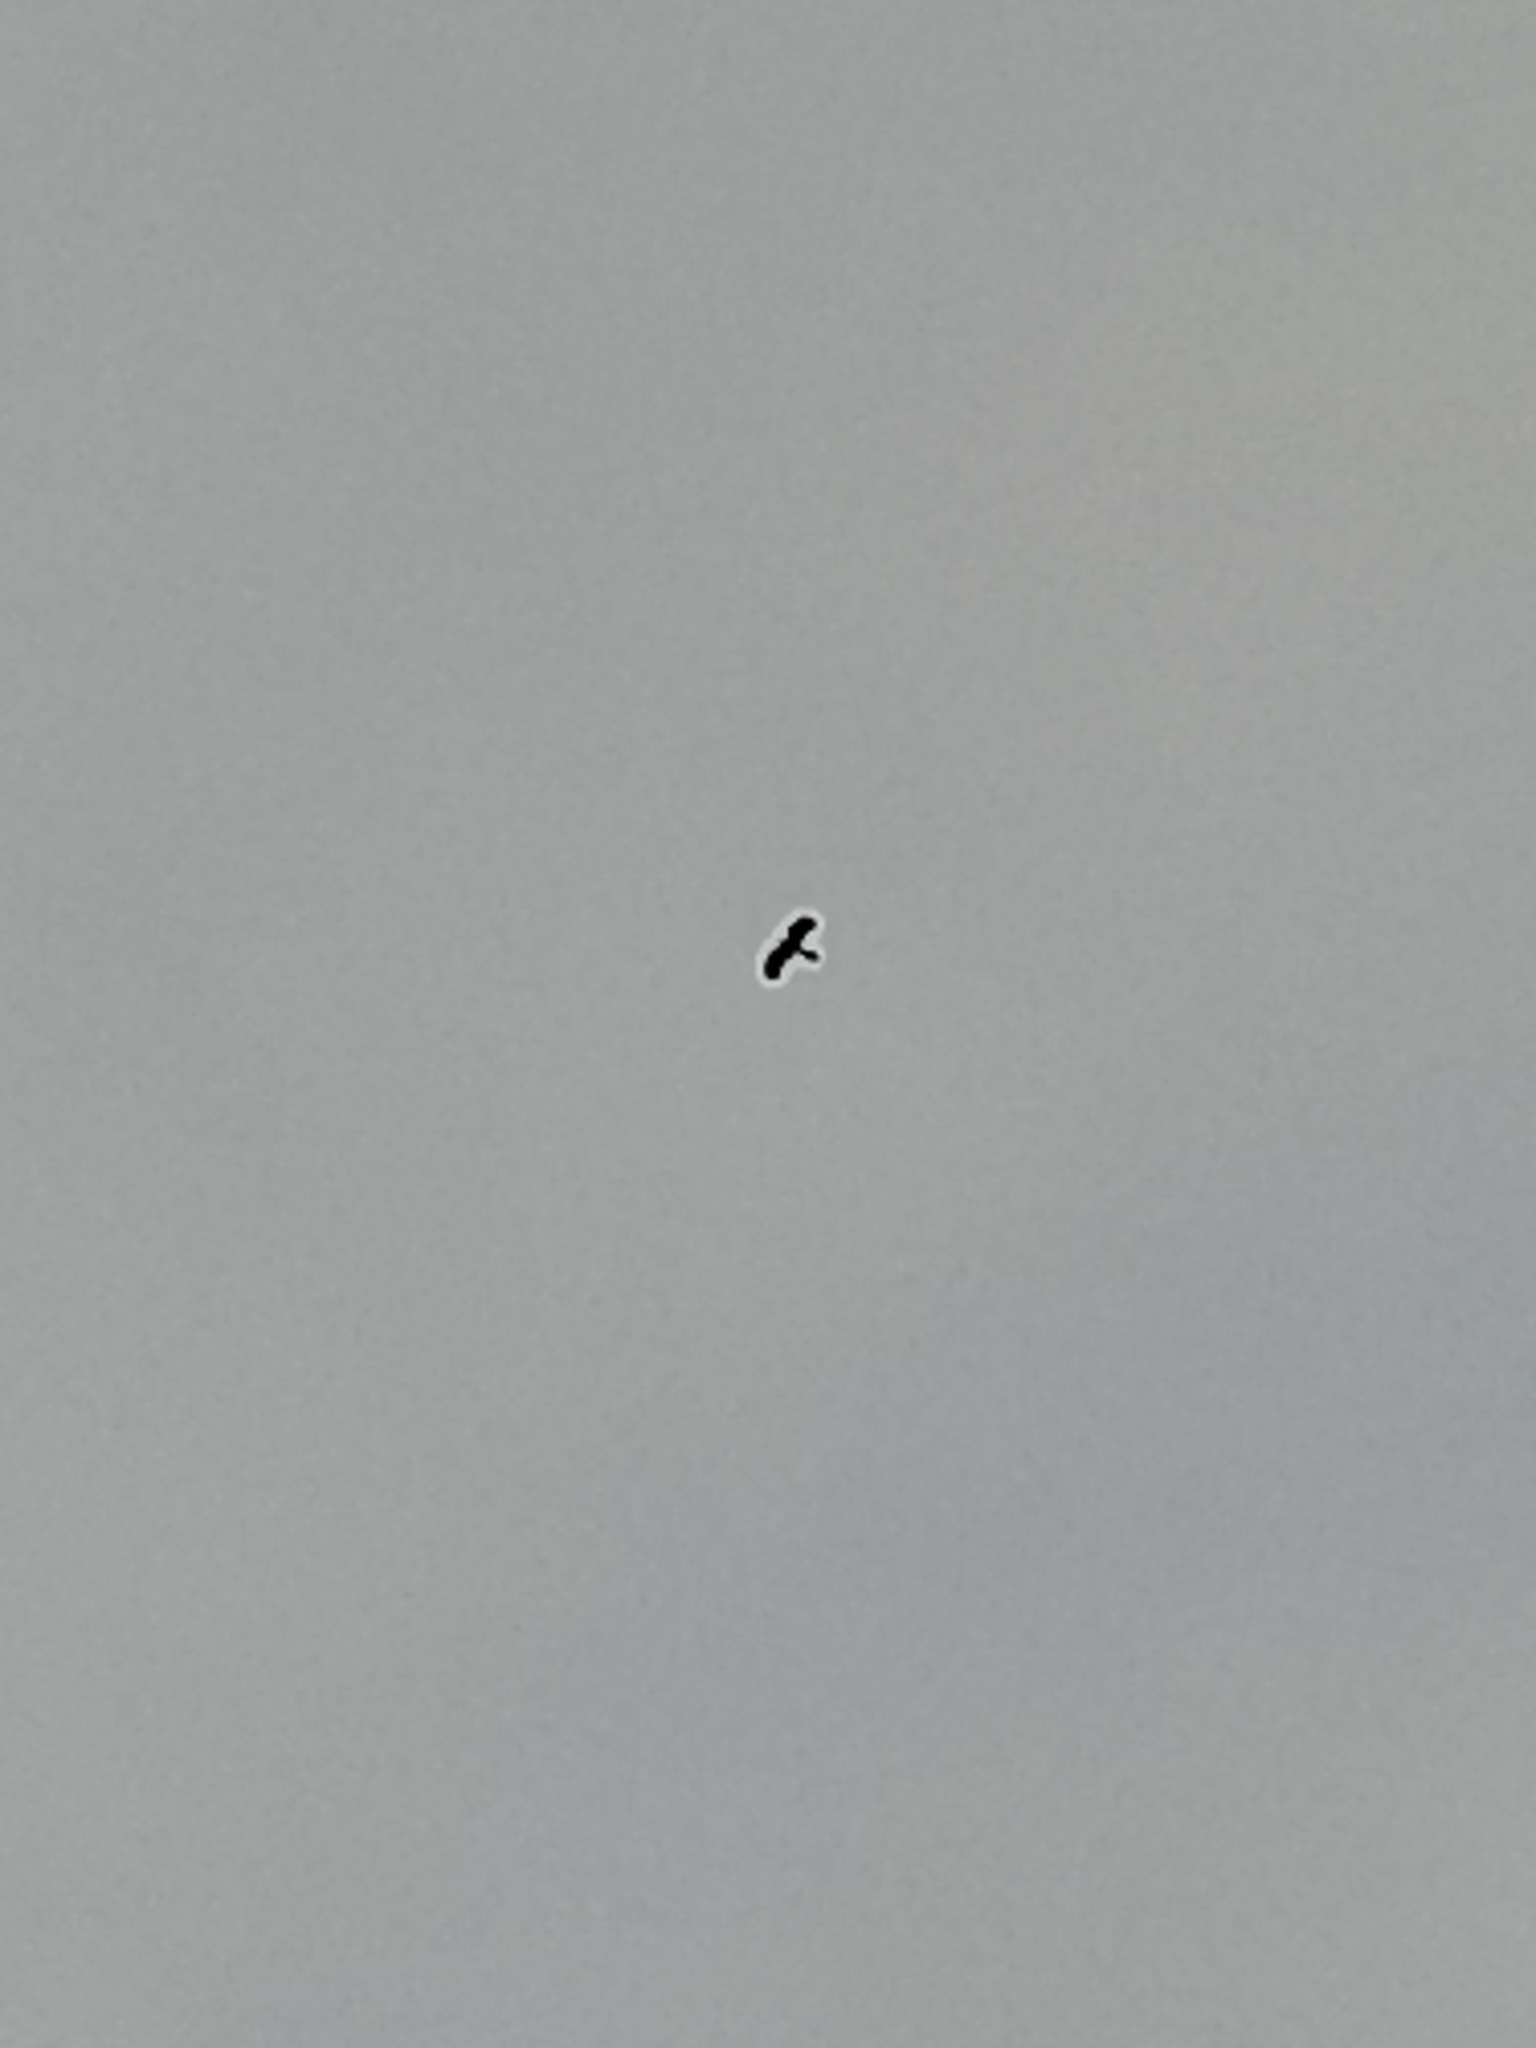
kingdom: Animalia
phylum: Chordata
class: Aves
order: Falconiformes
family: Falconidae
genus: Daptrius
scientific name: Daptrius
